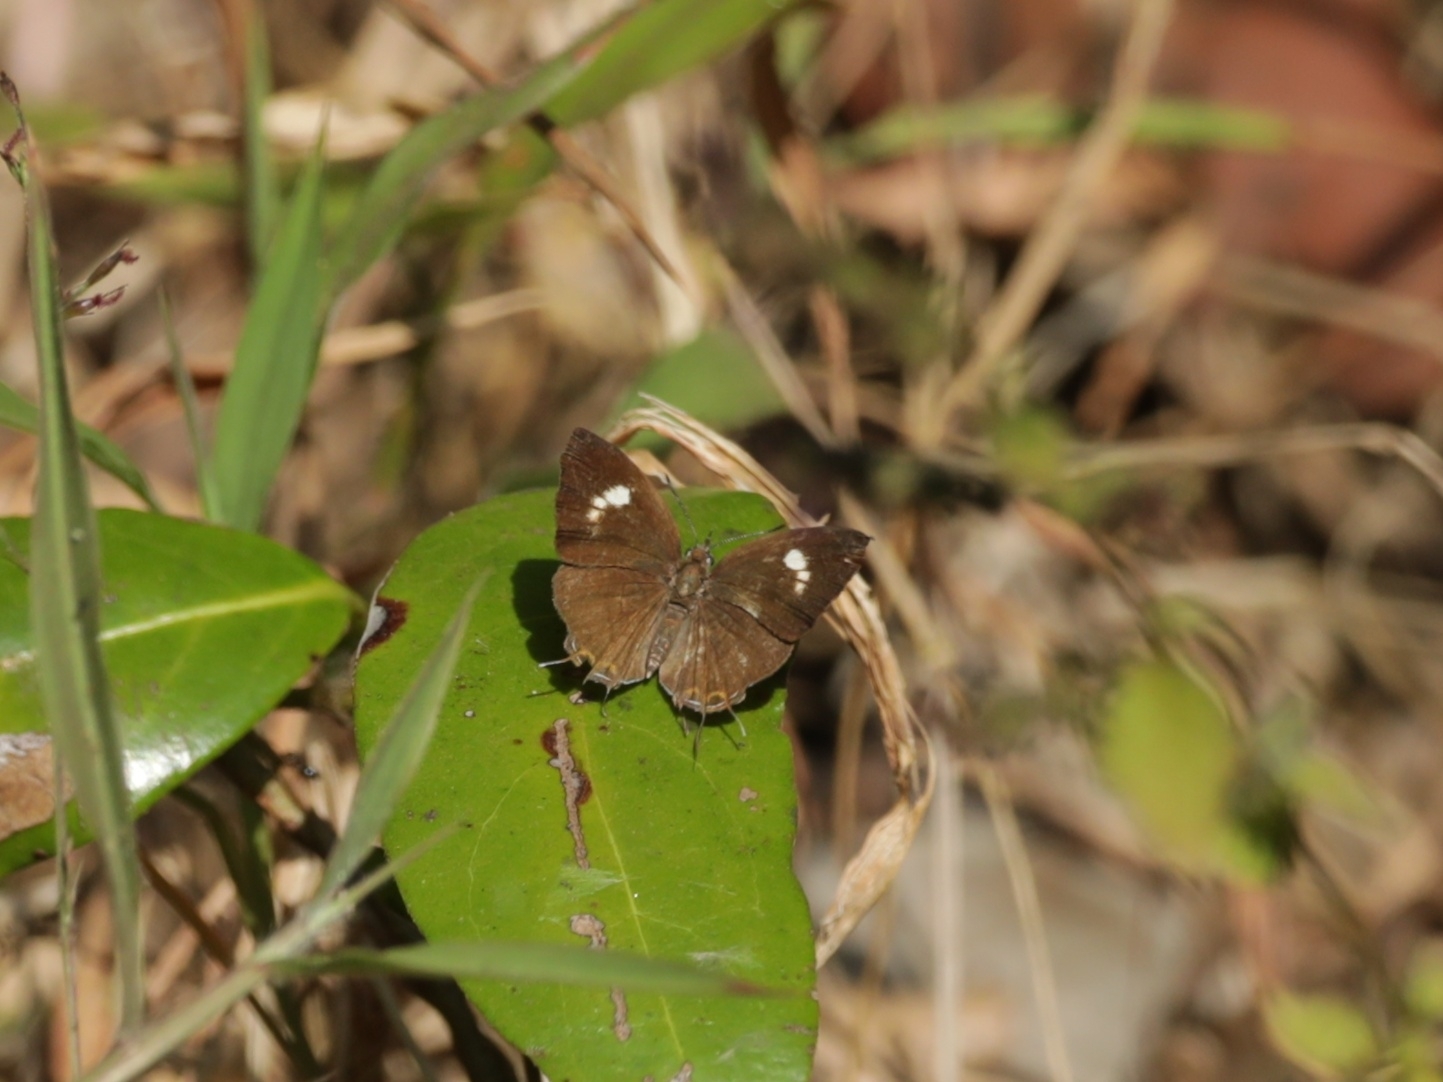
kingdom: Animalia
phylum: Arthropoda
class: Insecta
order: Lepidoptera
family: Lycaenidae
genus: Rathinda
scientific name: Rathinda amor
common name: Monkey puzzle
